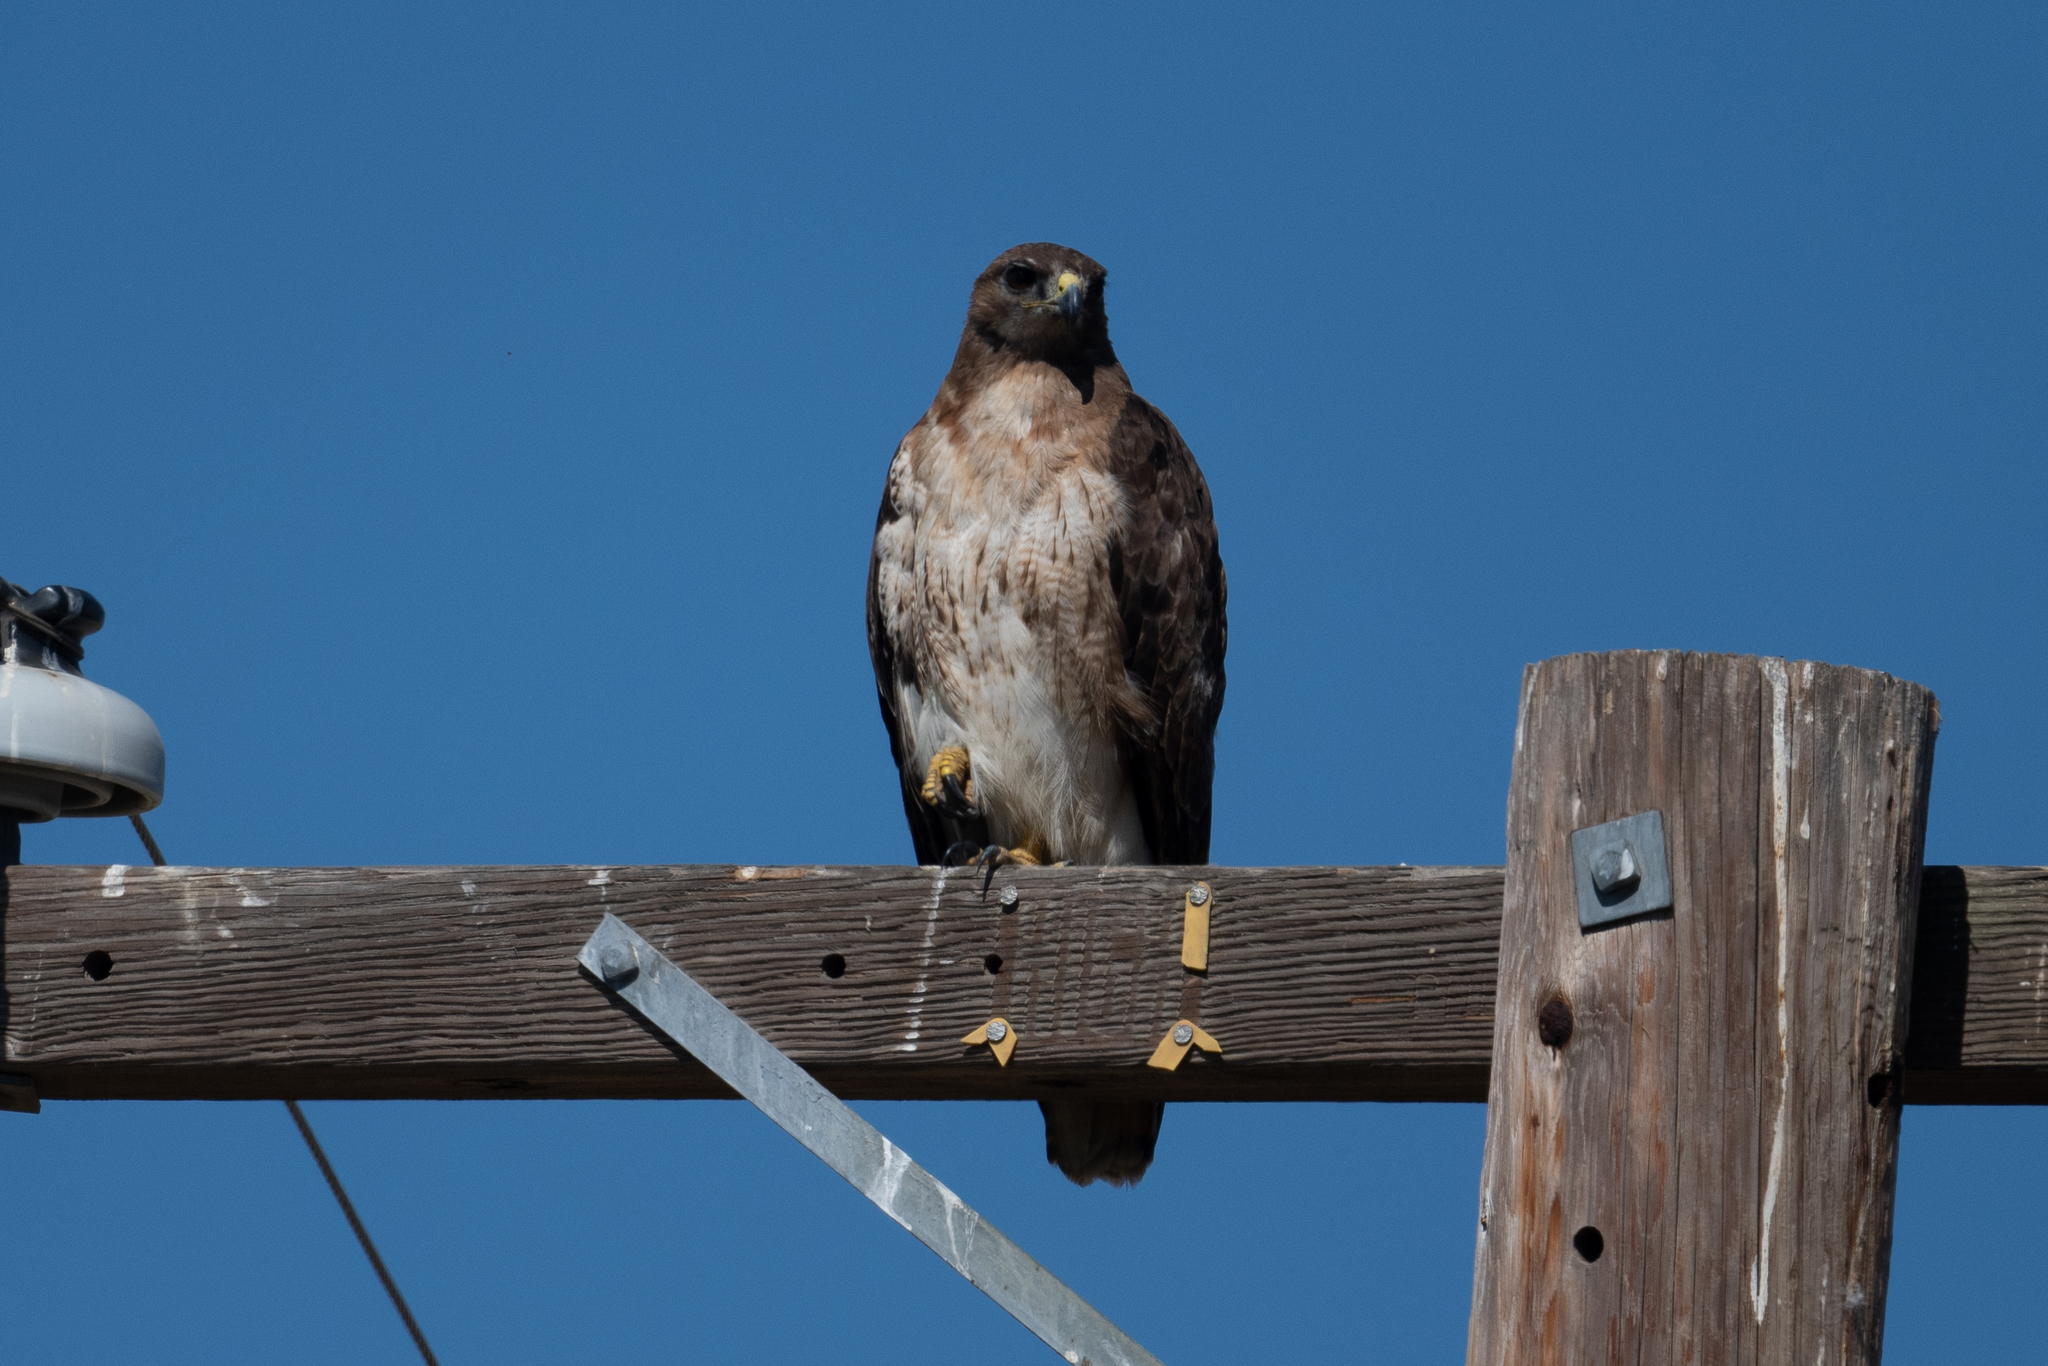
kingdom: Animalia
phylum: Chordata
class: Aves
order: Accipitriformes
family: Accipitridae
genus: Buteo
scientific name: Buteo jamaicensis
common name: Red-tailed hawk
